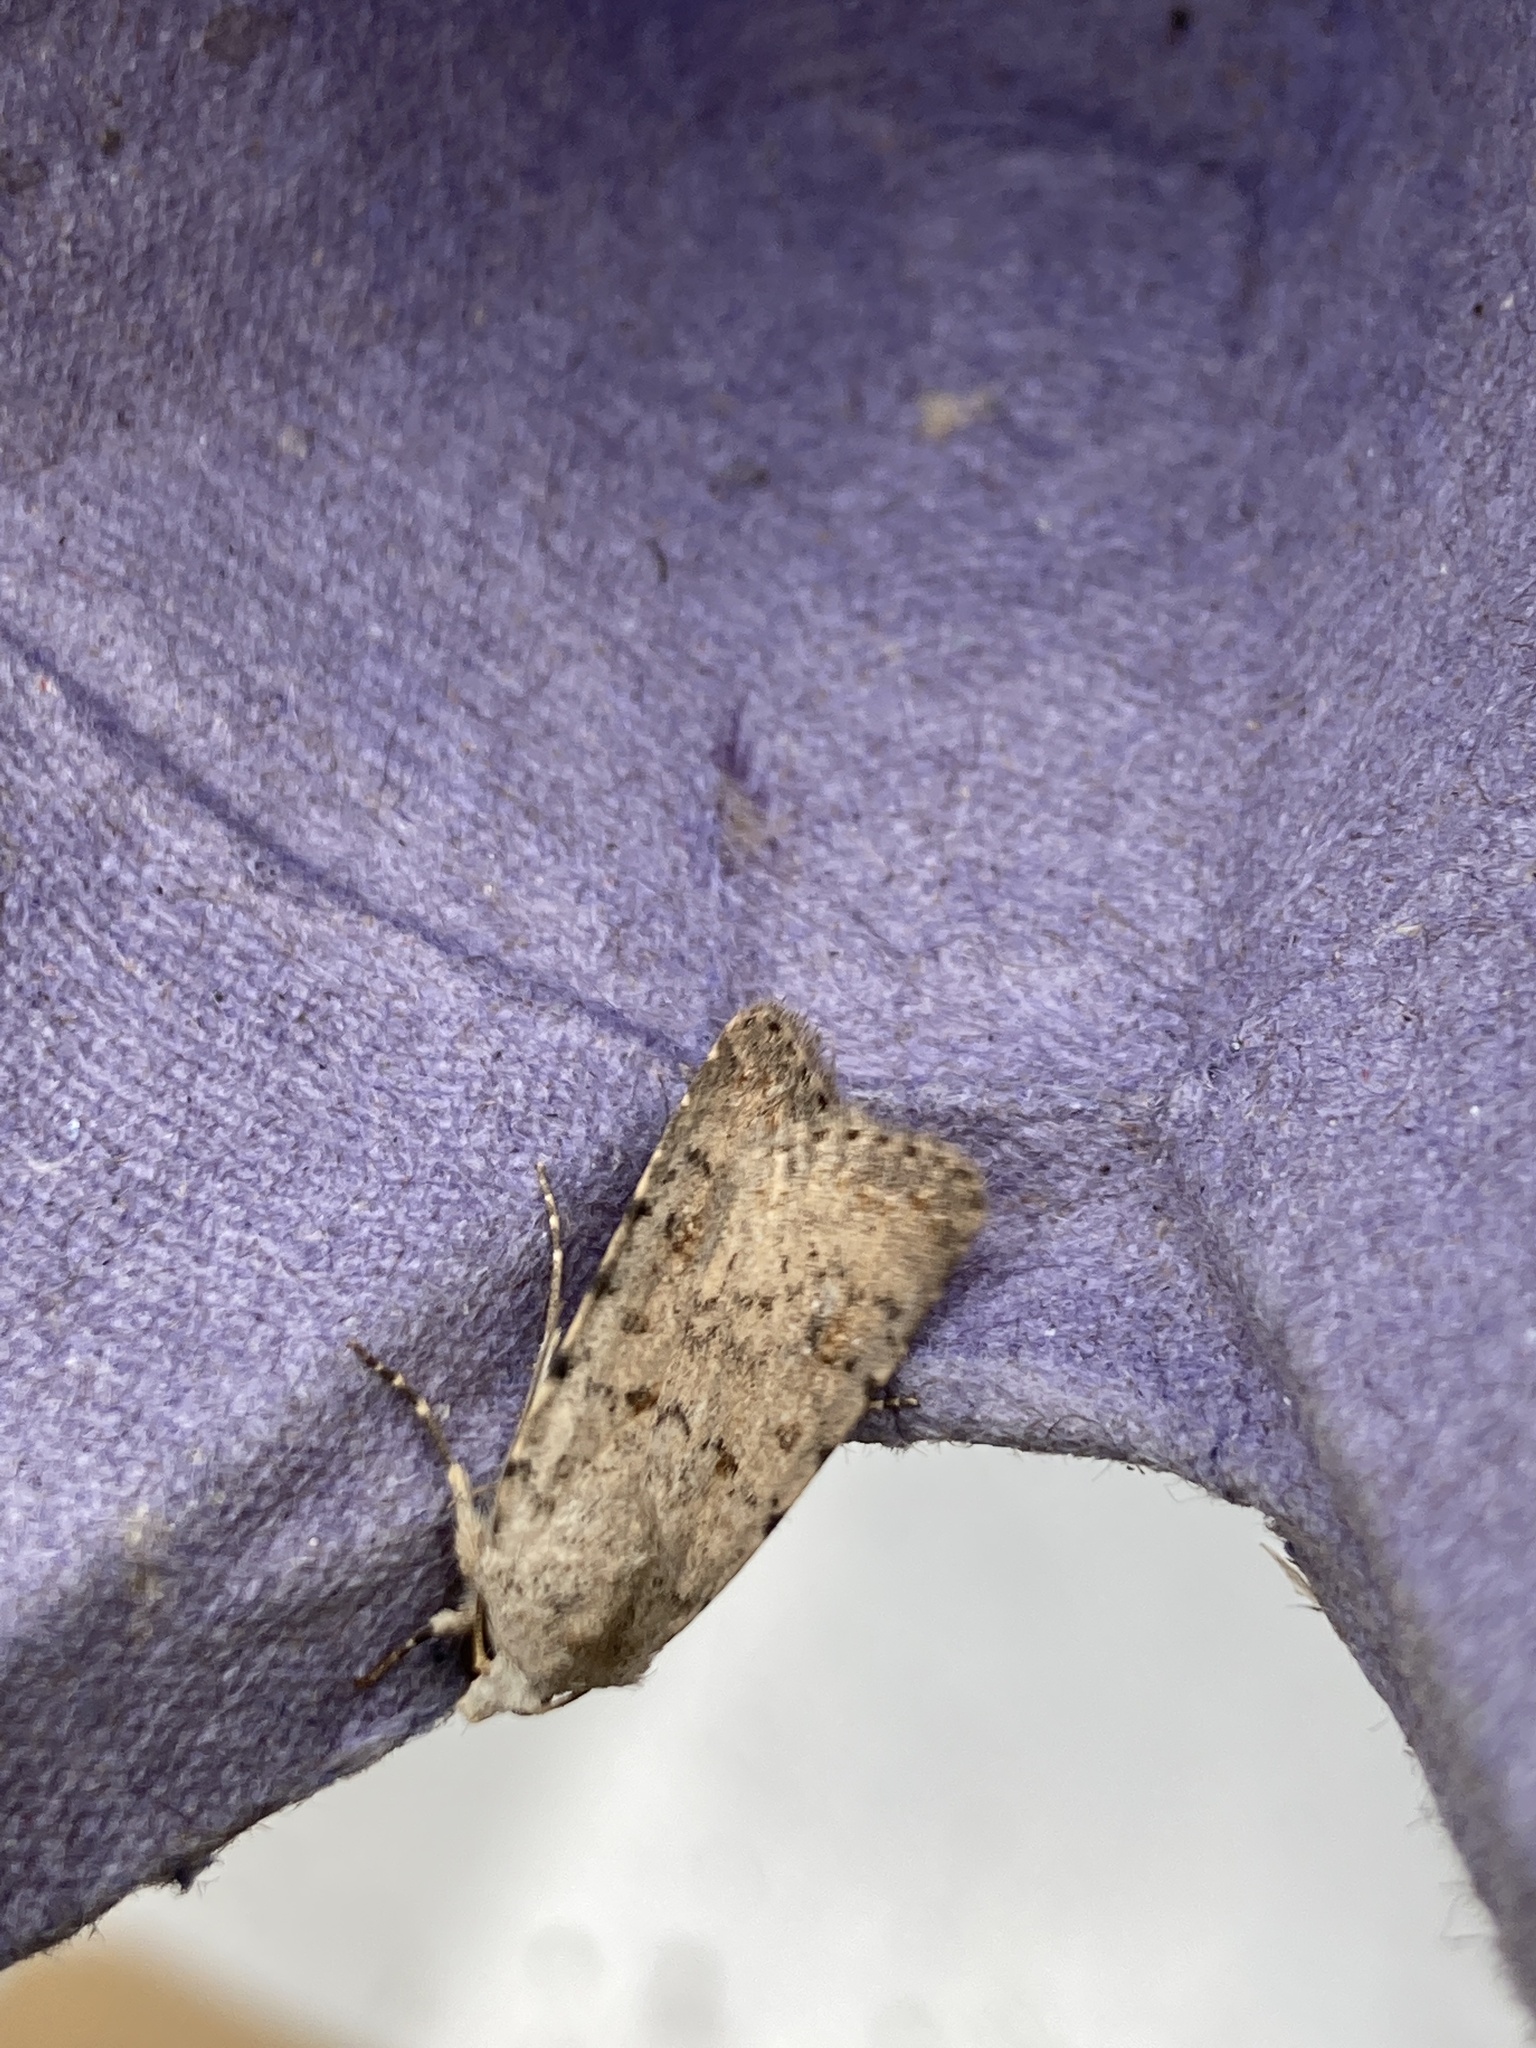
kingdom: Animalia
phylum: Arthropoda
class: Insecta
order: Lepidoptera
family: Noctuidae
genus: Caradrina
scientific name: Caradrina clavipalpis
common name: Pale mottled willow
